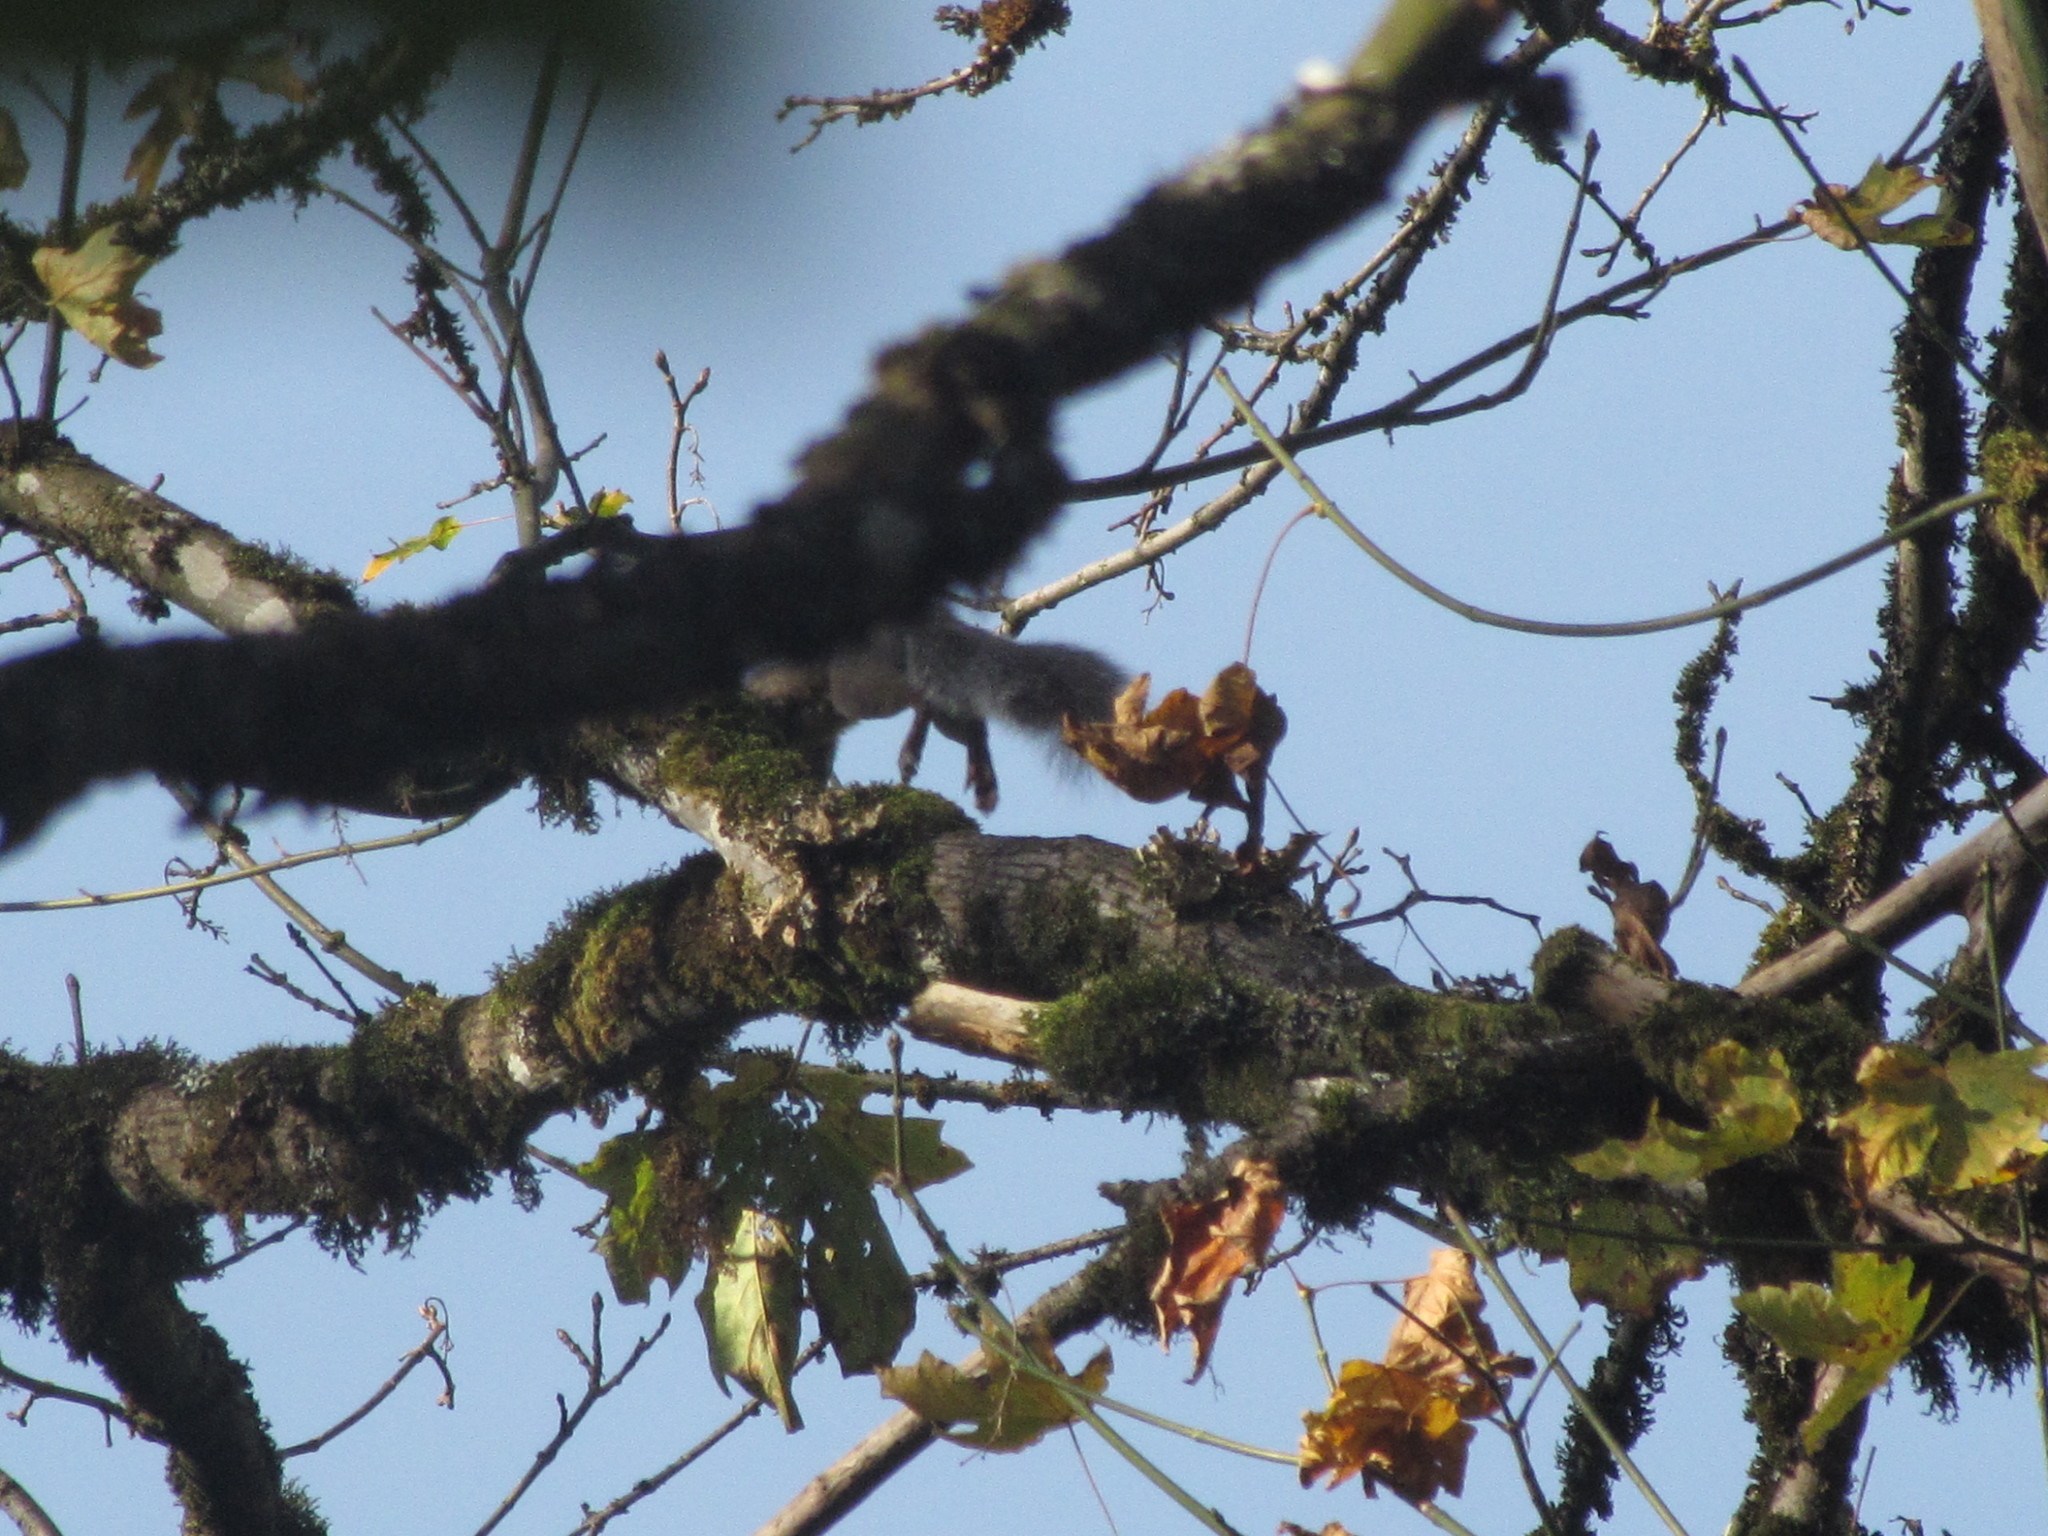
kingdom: Animalia
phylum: Chordata
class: Mammalia
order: Rodentia
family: Sciuridae
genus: Sciurus
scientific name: Sciurus carolinensis
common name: Eastern gray squirrel
